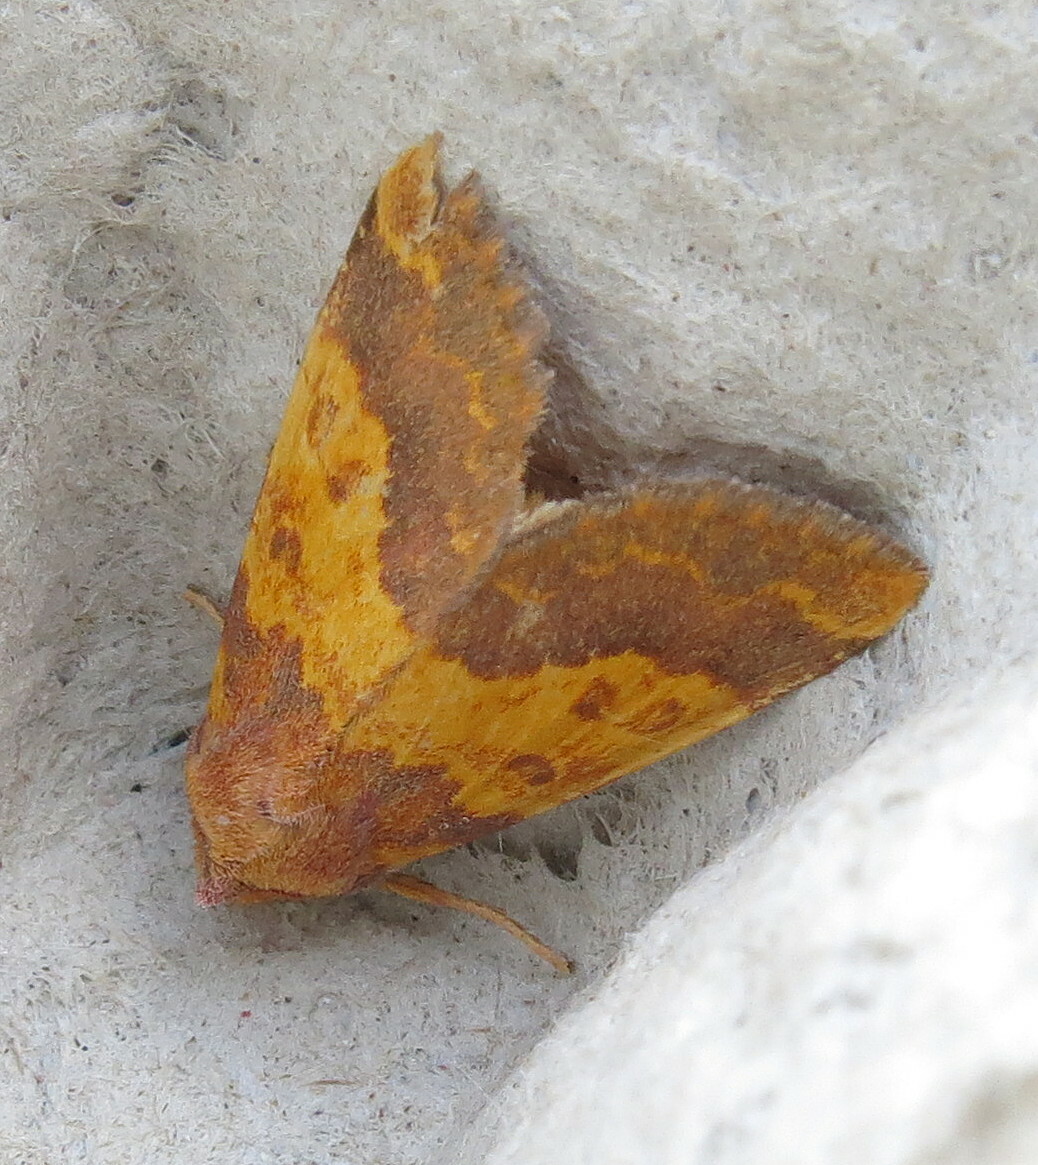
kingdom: Animalia
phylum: Arthropoda
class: Insecta
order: Lepidoptera
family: Noctuidae
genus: Tiliacea
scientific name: Tiliacea aurago
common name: Barred sallow
